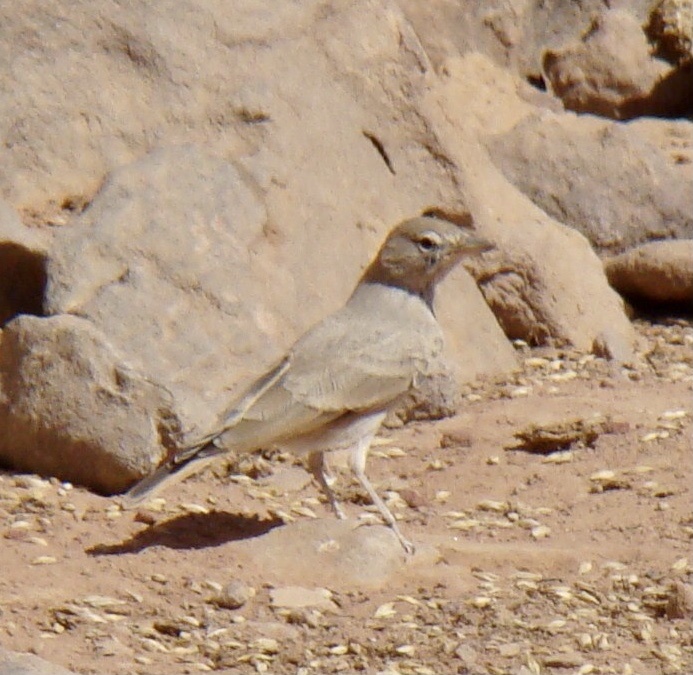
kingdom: Animalia
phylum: Chordata
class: Aves
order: Passeriformes
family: Alaudidae
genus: Ammomanes
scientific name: Ammomanes deserti
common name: Desert lark
